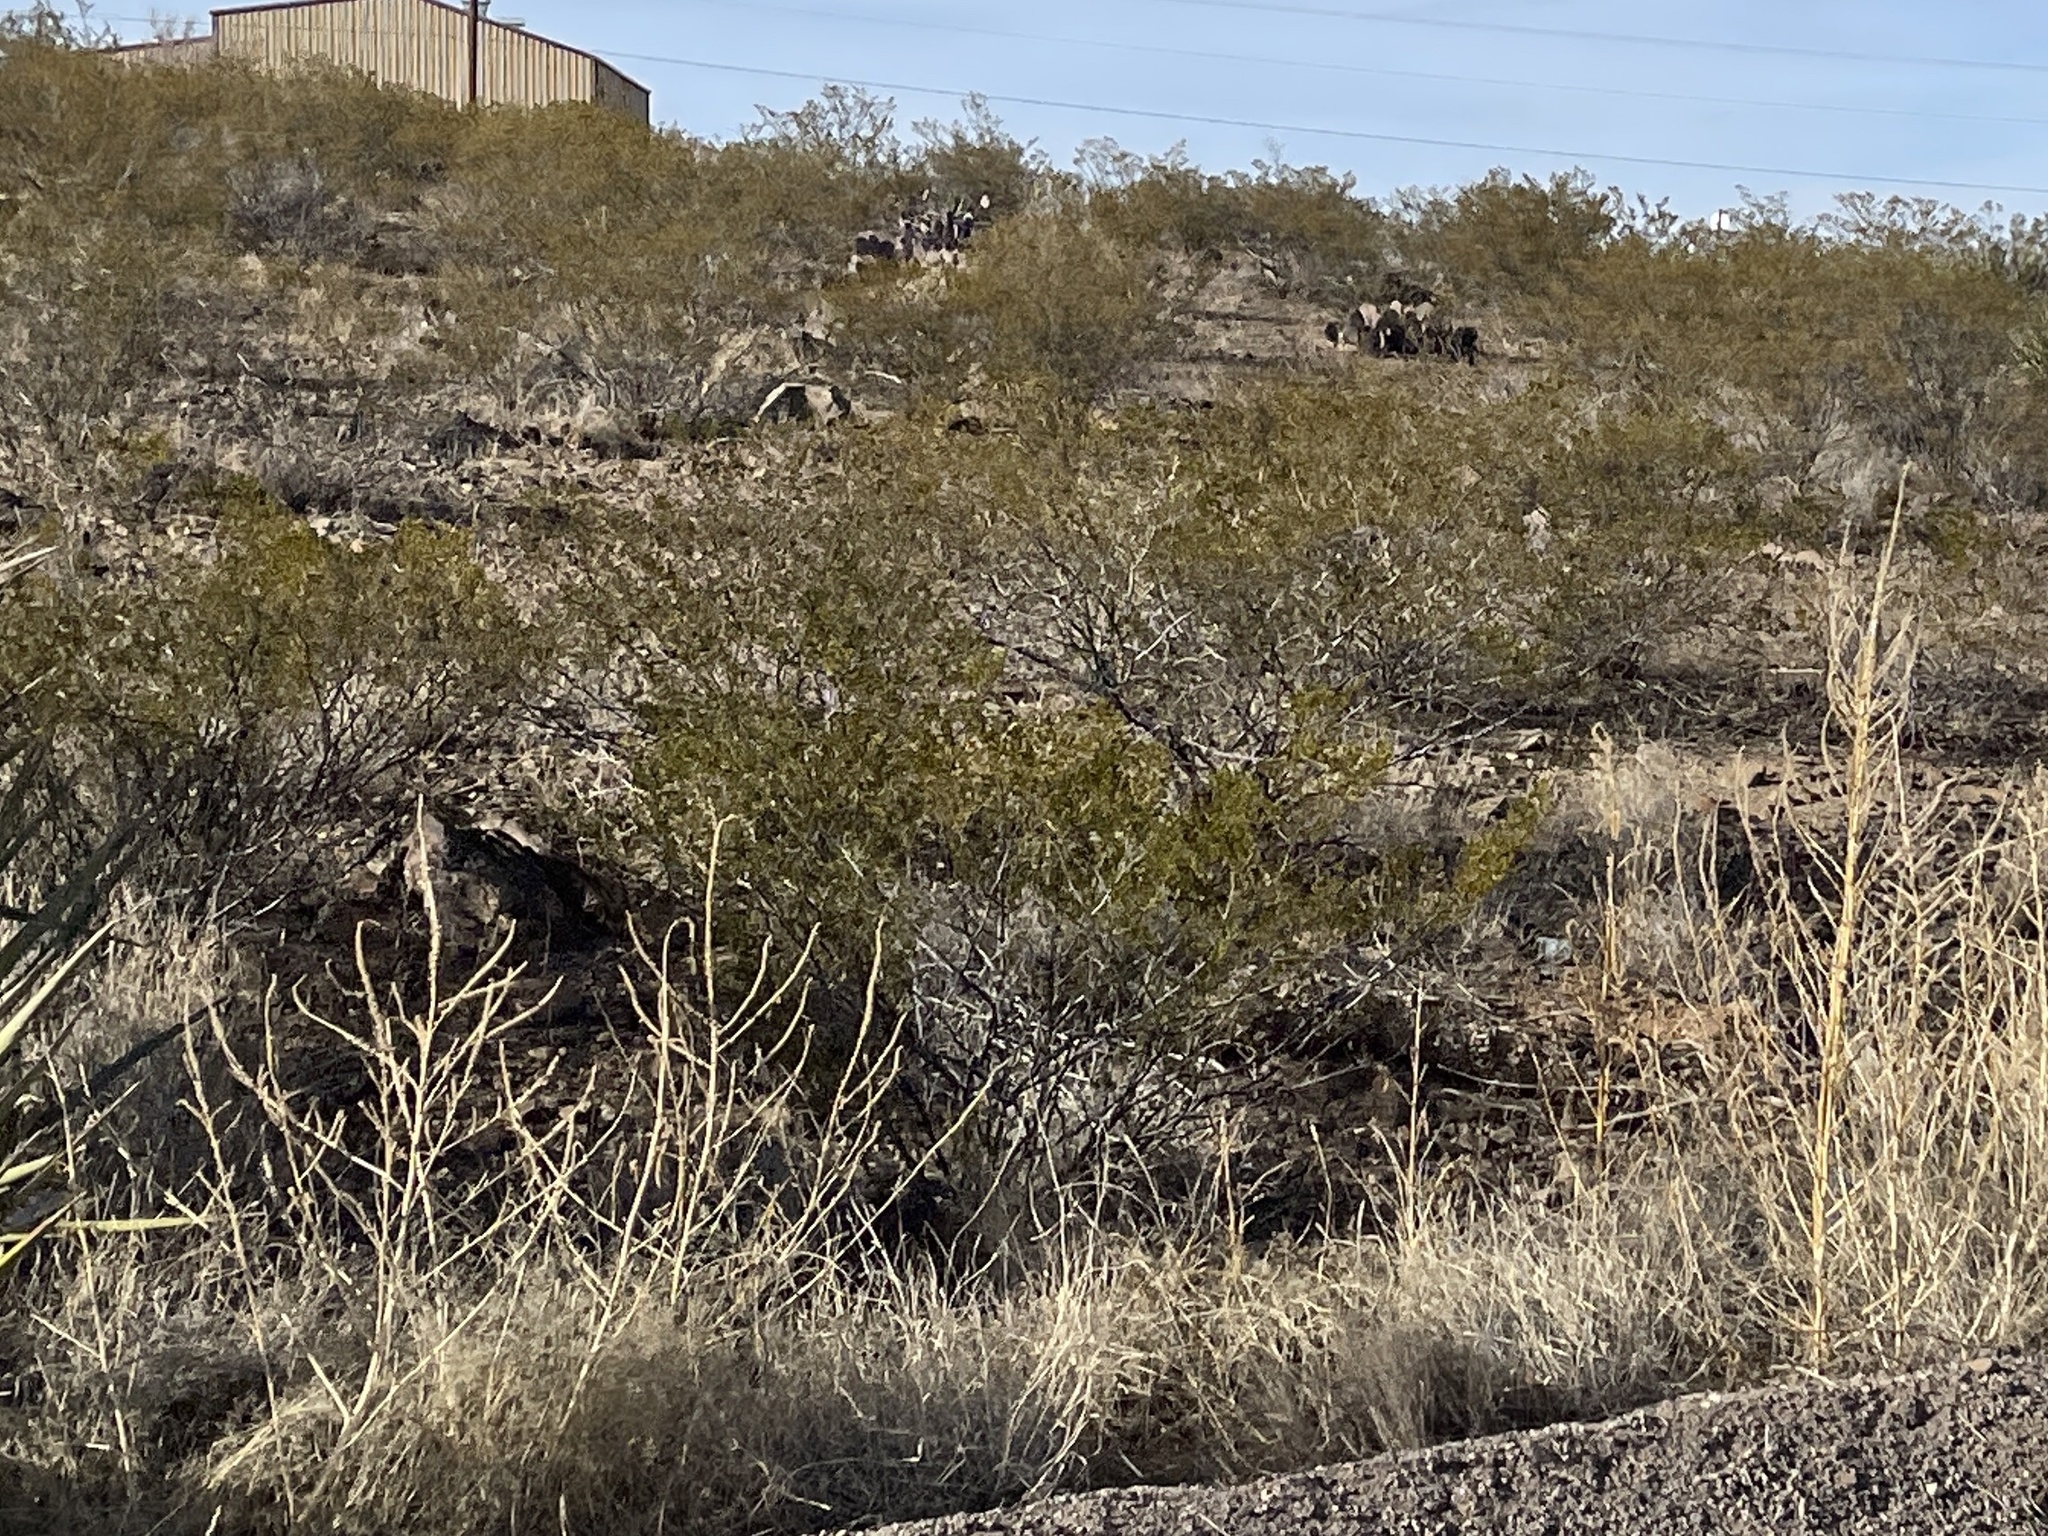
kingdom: Plantae
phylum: Tracheophyta
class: Magnoliopsida
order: Zygophyllales
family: Zygophyllaceae
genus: Larrea
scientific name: Larrea tridentata
